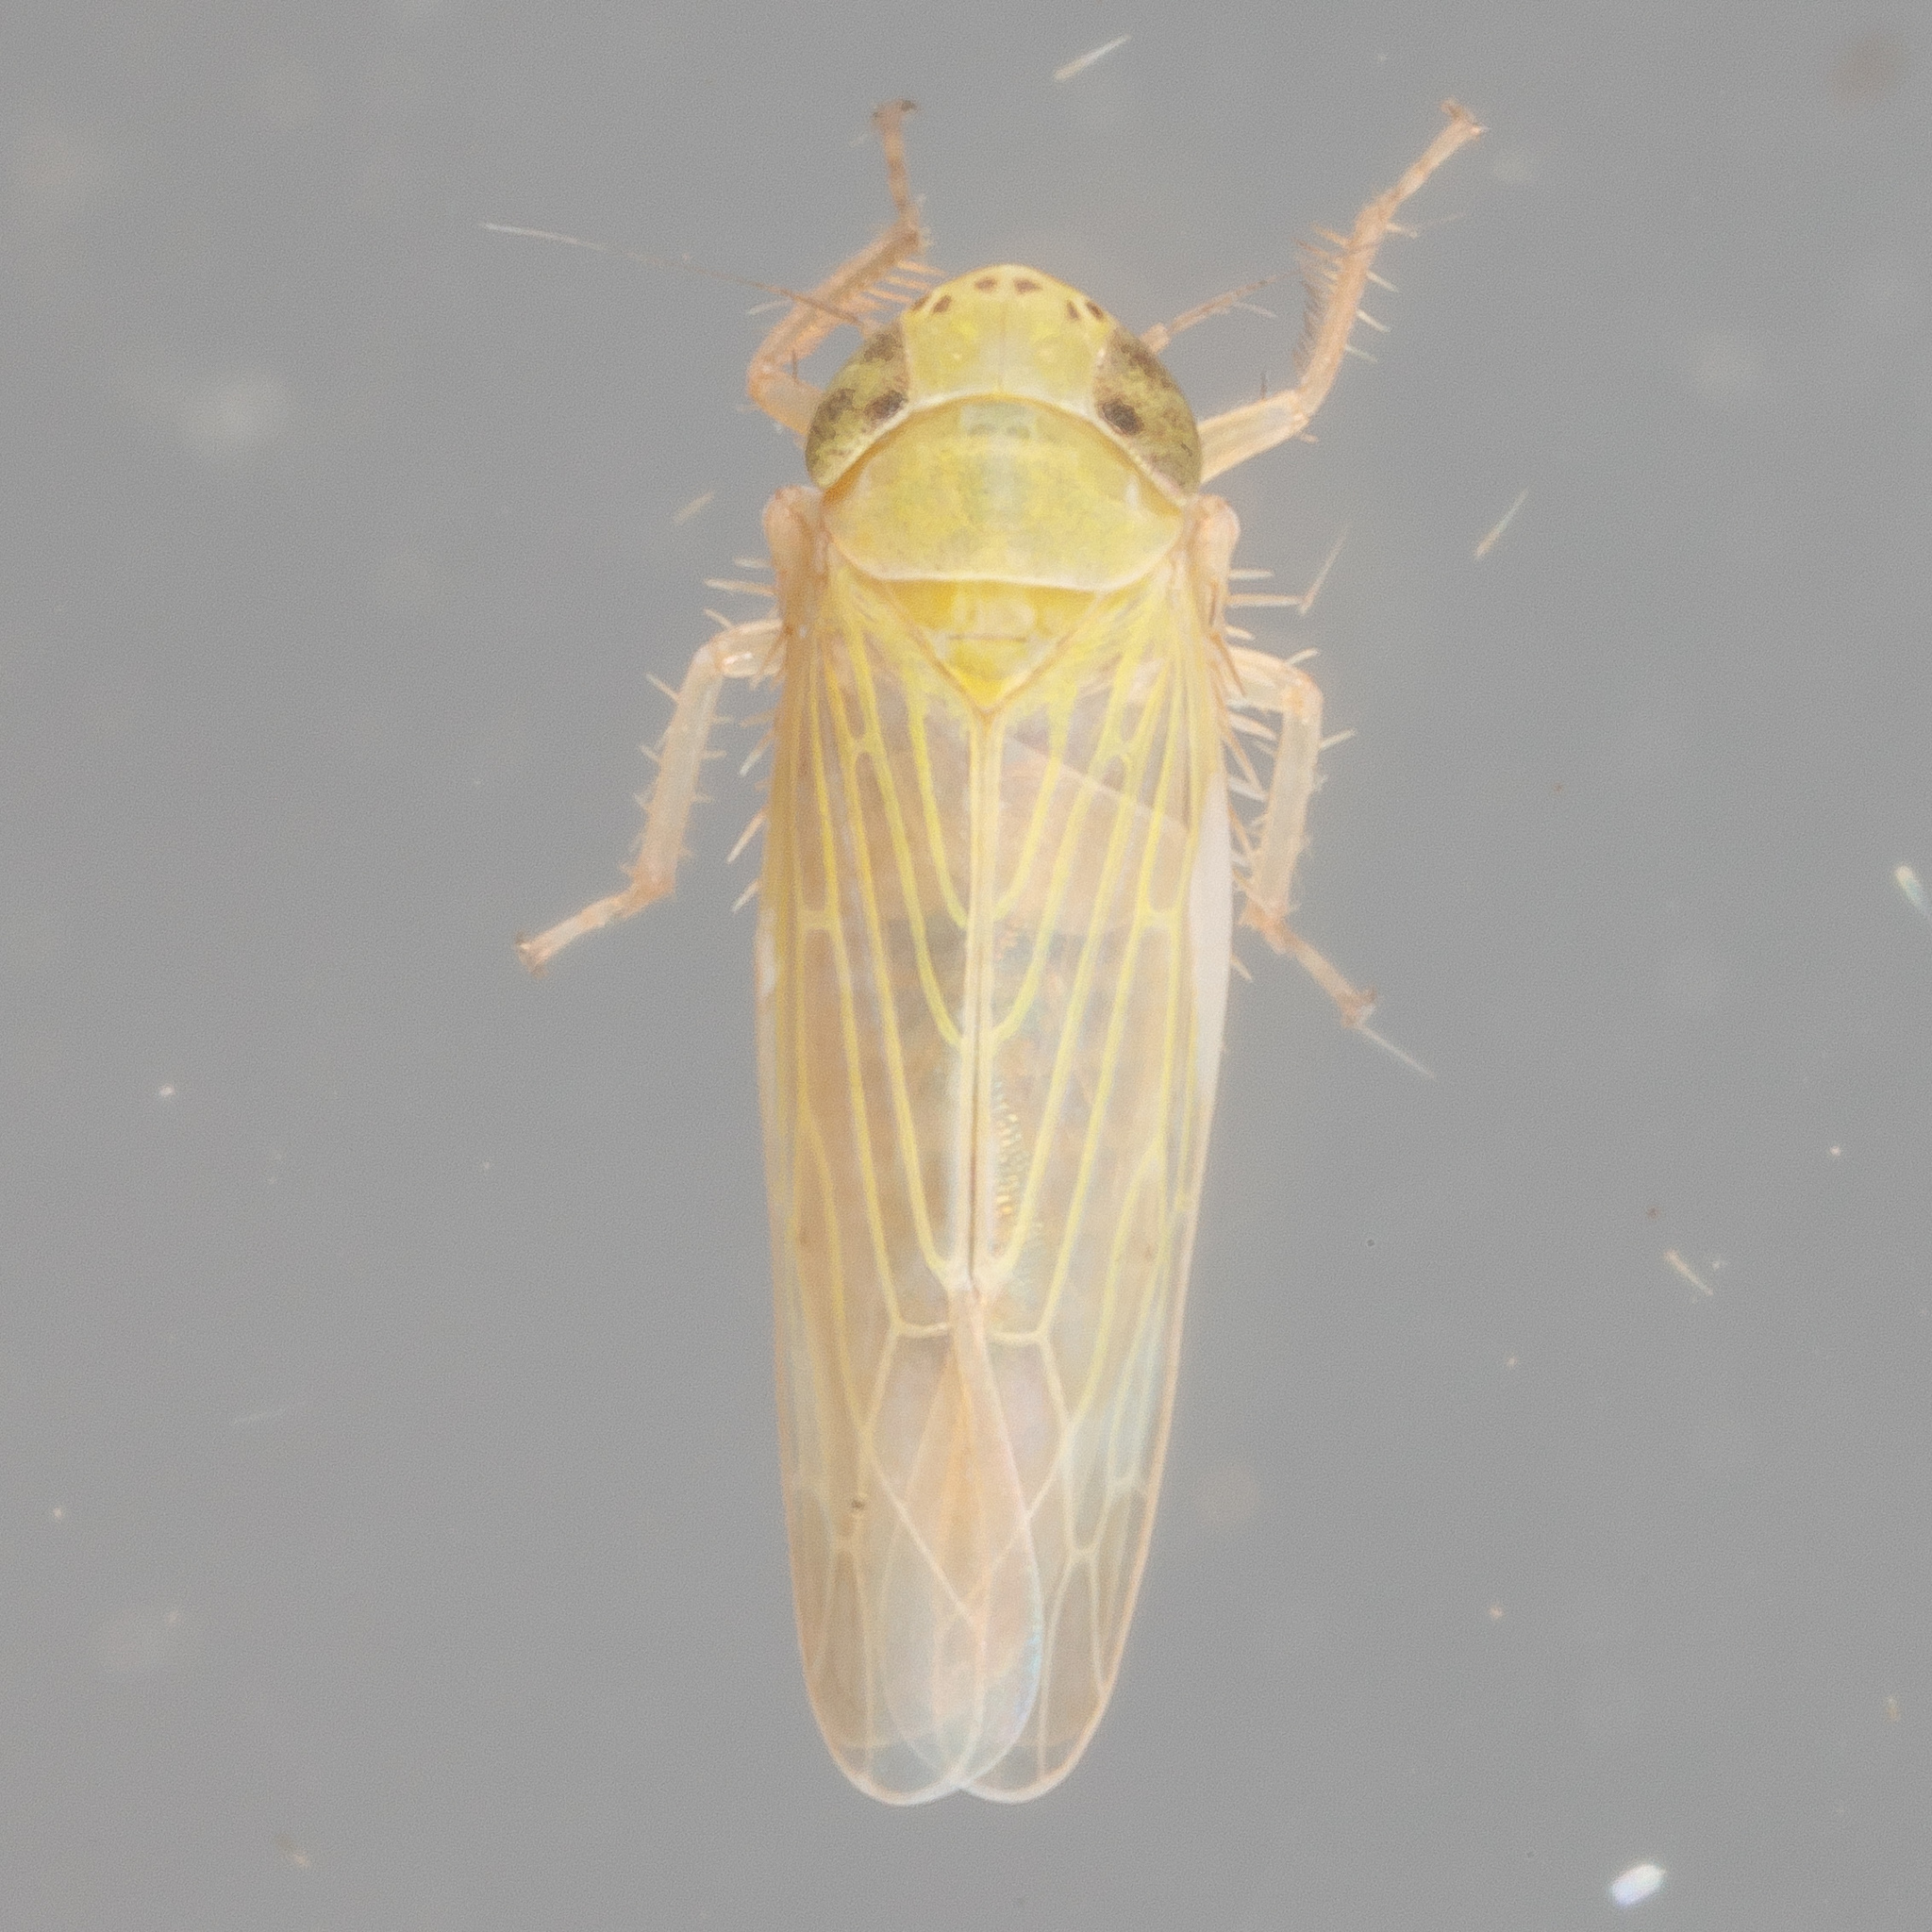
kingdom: Animalia
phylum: Arthropoda
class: Insecta
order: Hemiptera
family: Cicadellidae
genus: Graminella
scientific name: Graminella nigrifrons
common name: Blackfaced leafhopper
